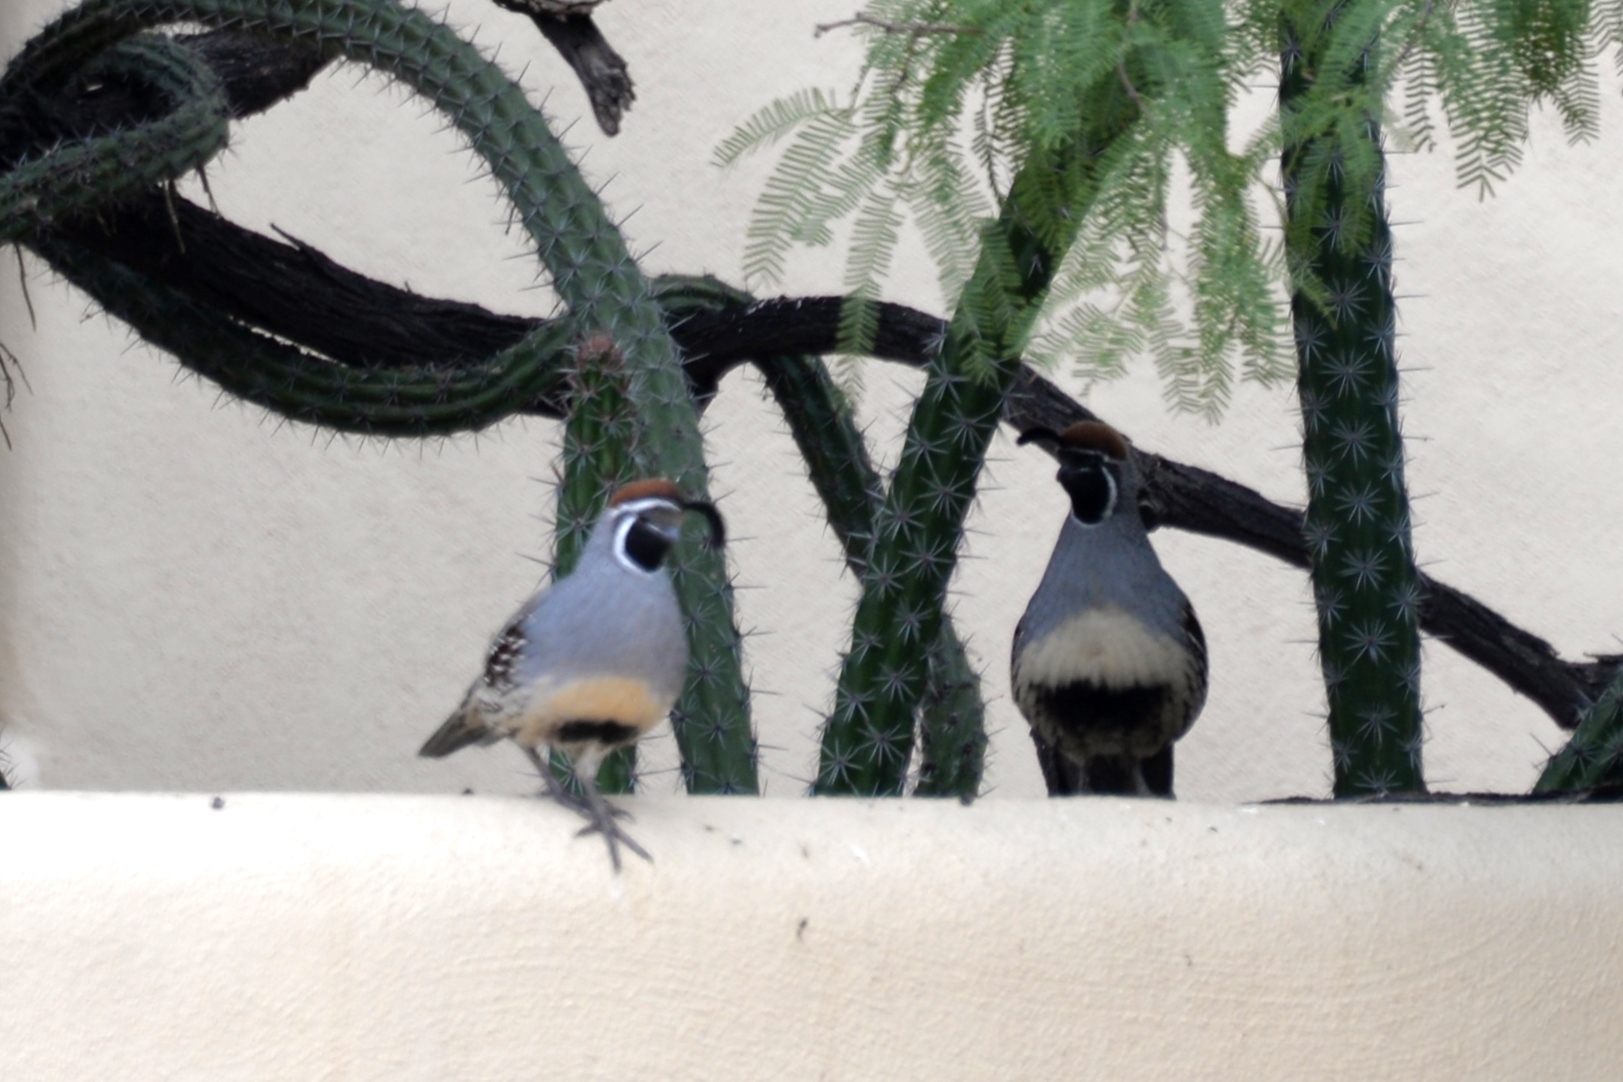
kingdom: Animalia
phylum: Chordata
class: Aves
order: Galliformes
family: Odontophoridae
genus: Callipepla
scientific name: Callipepla gambelii
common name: Gambel's quail
